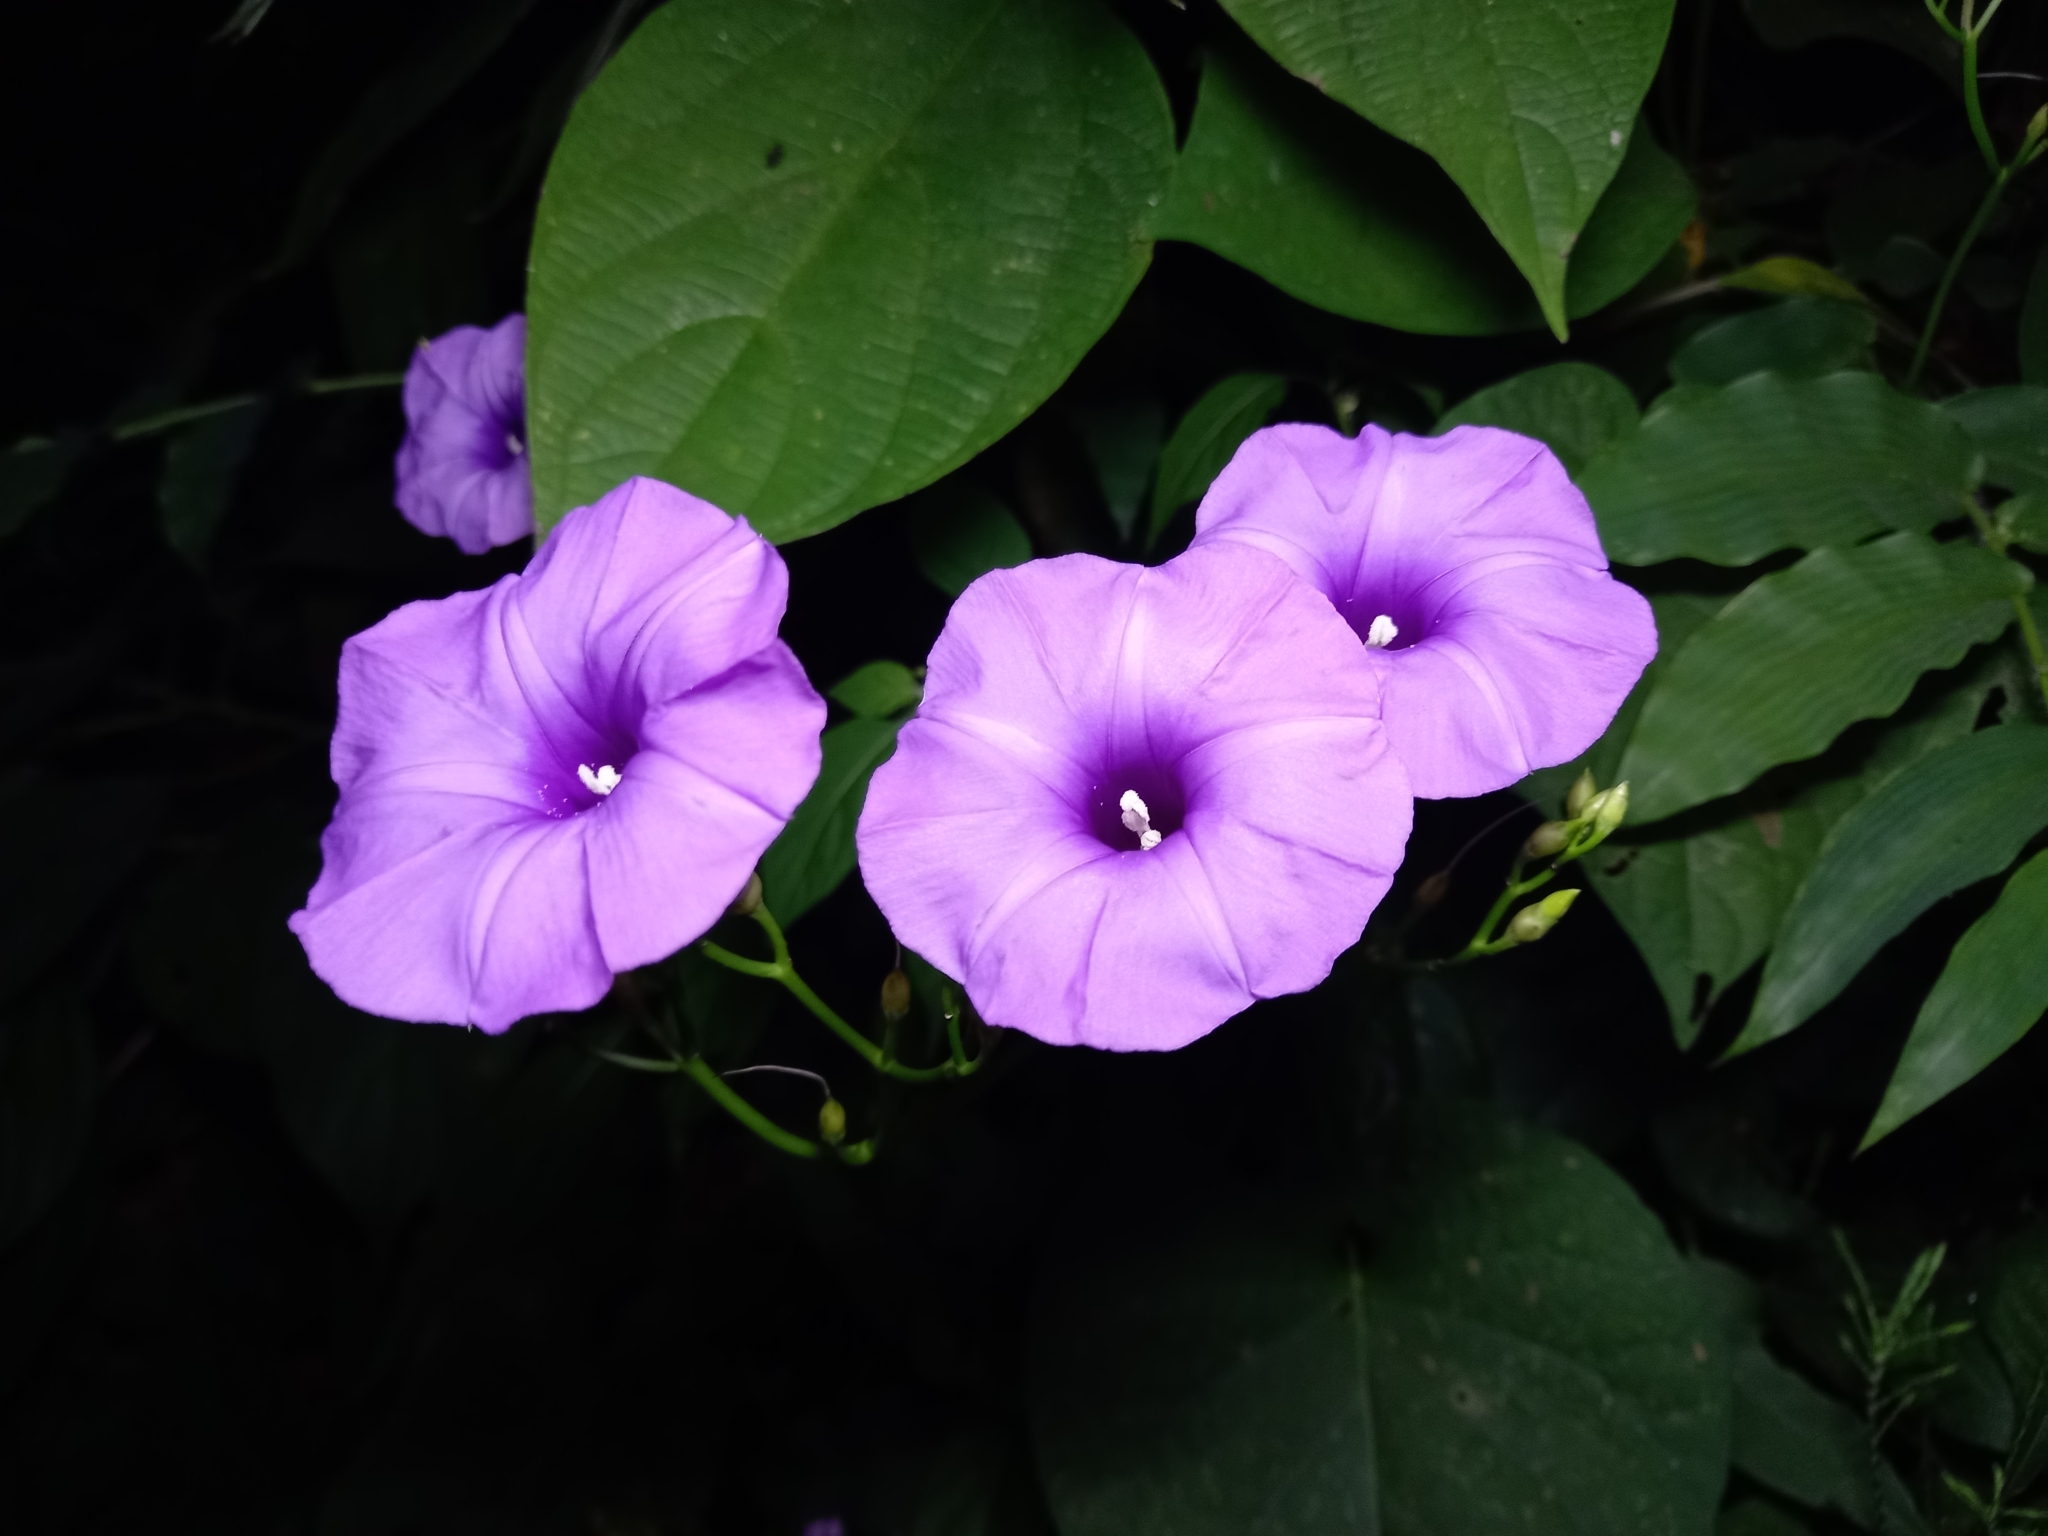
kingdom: Plantae
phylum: Tracheophyta
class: Magnoliopsida
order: Solanales
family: Convolvulaceae
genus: Ipomoea
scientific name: Ipomoea splendor-sylvae
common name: Morning glory
